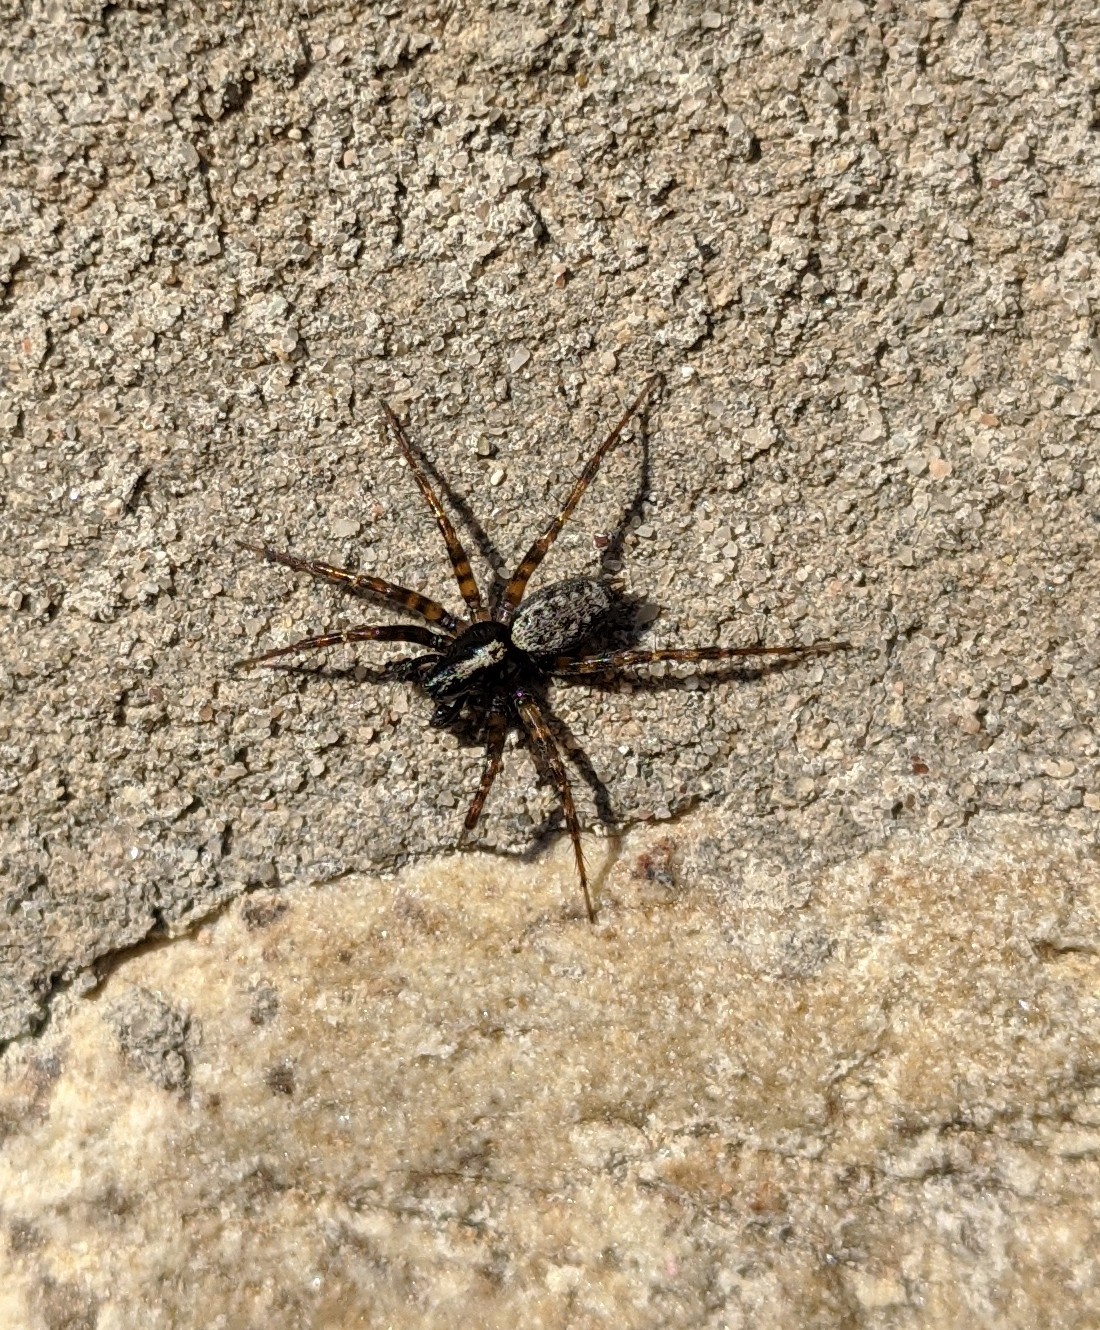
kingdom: Animalia
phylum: Arthropoda
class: Arachnida
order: Araneae
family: Agelenidae
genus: Textrix
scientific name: Textrix denticulata
